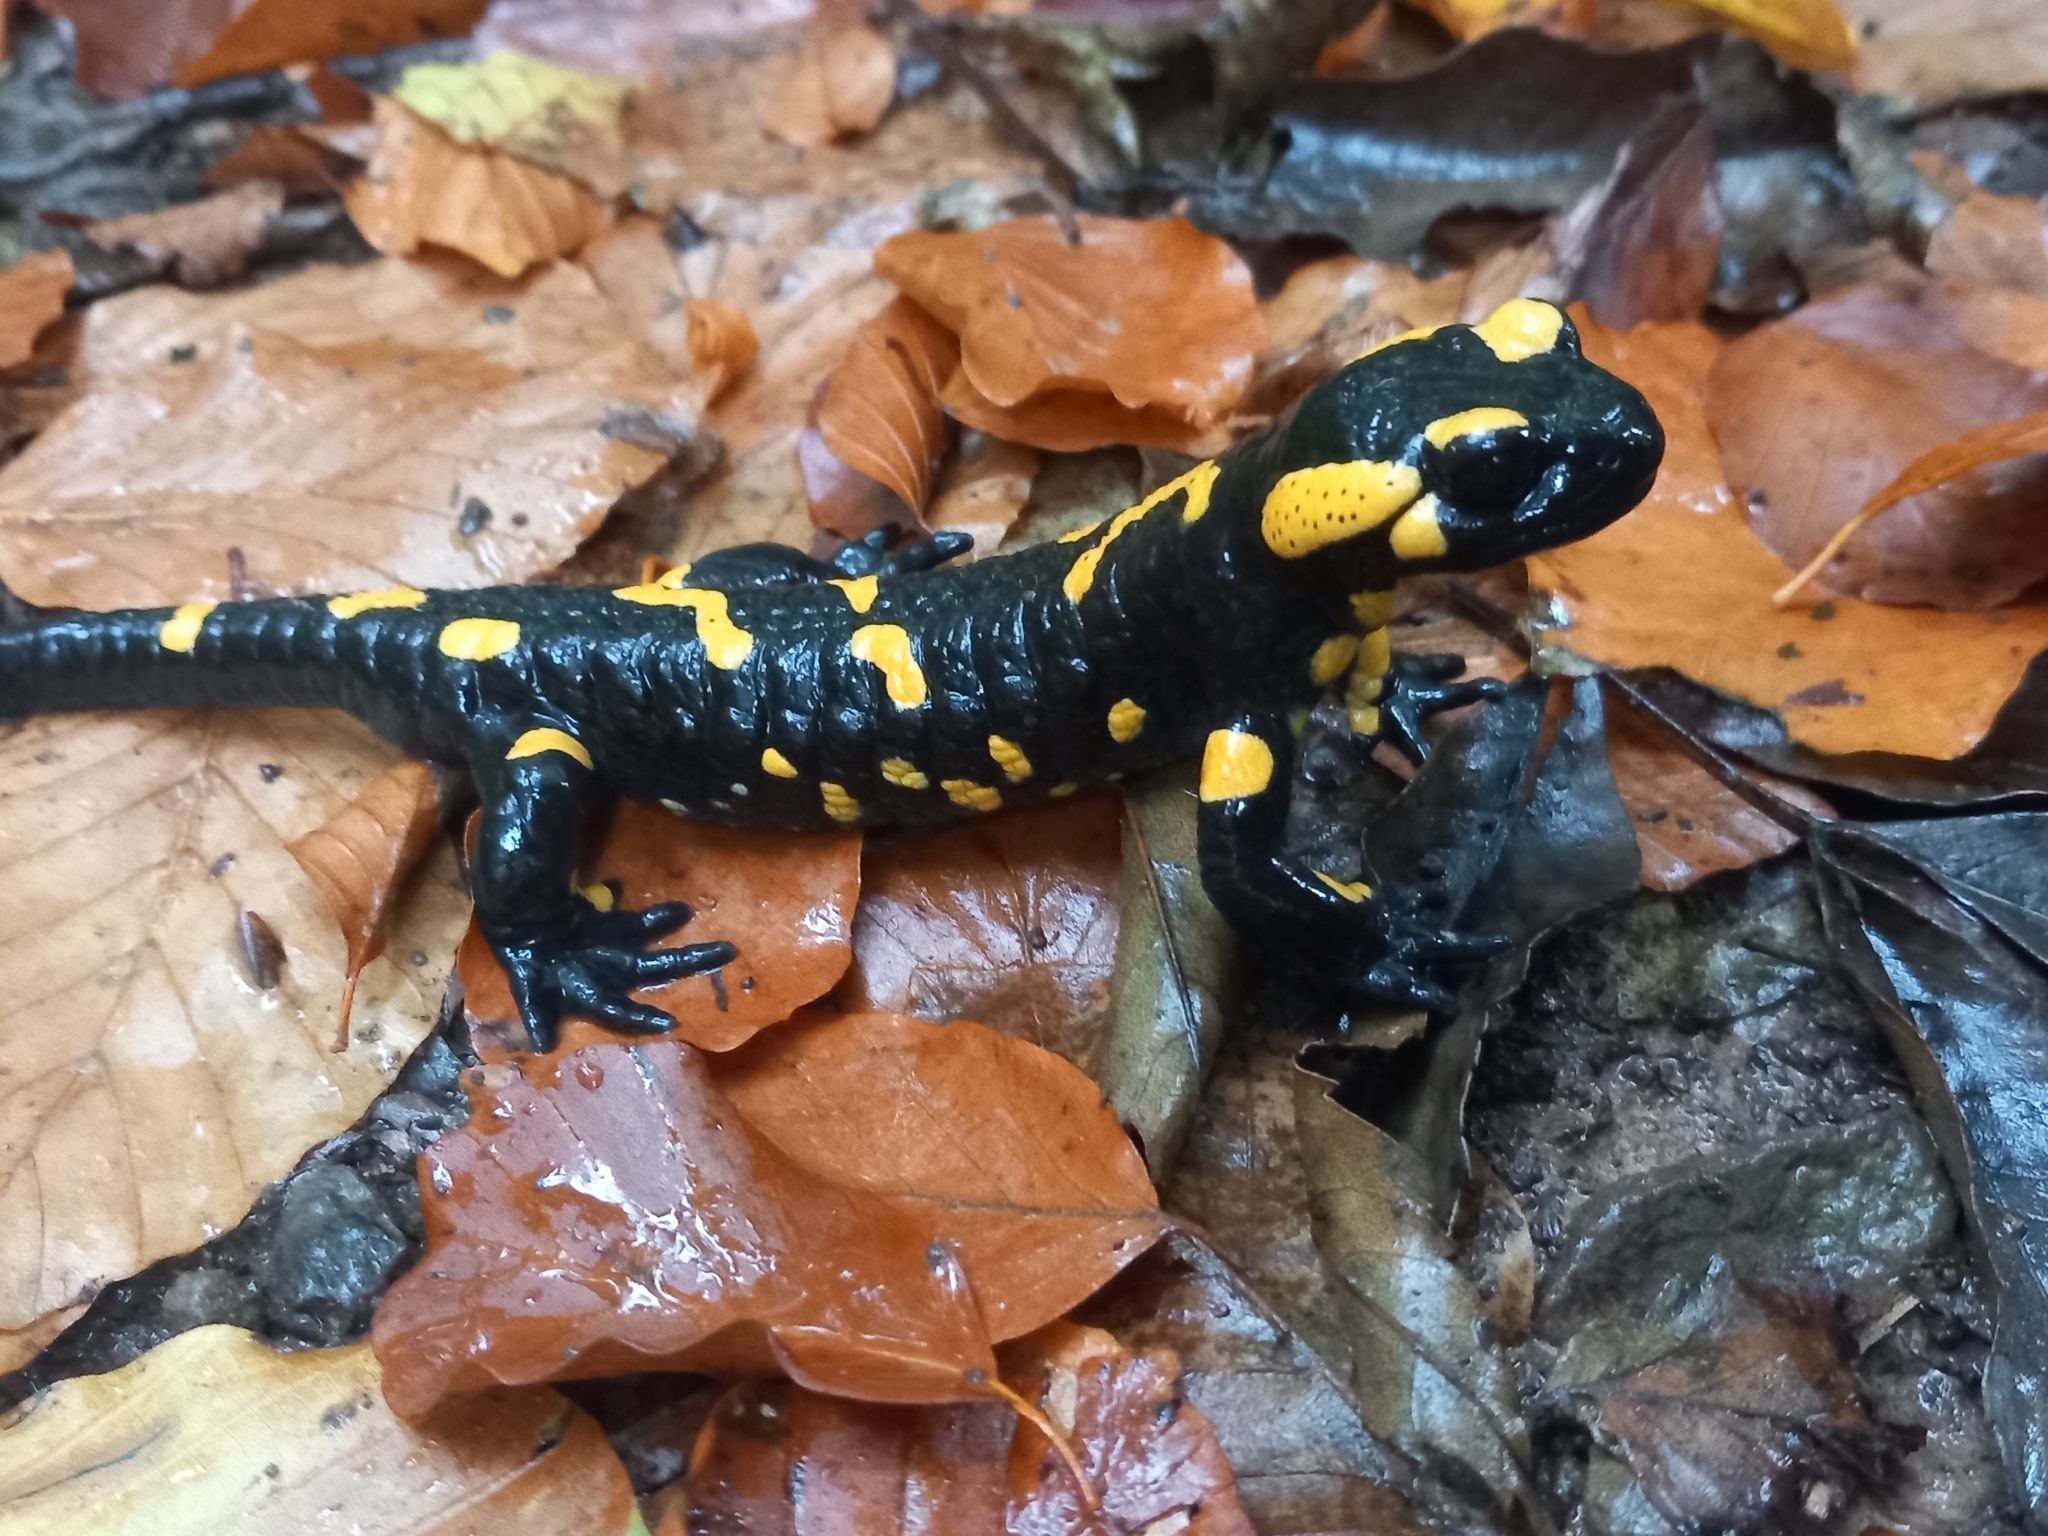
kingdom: Animalia
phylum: Chordata
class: Amphibia
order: Caudata
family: Salamandridae
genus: Salamandra
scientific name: Salamandra salamandra
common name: Fire salamander
